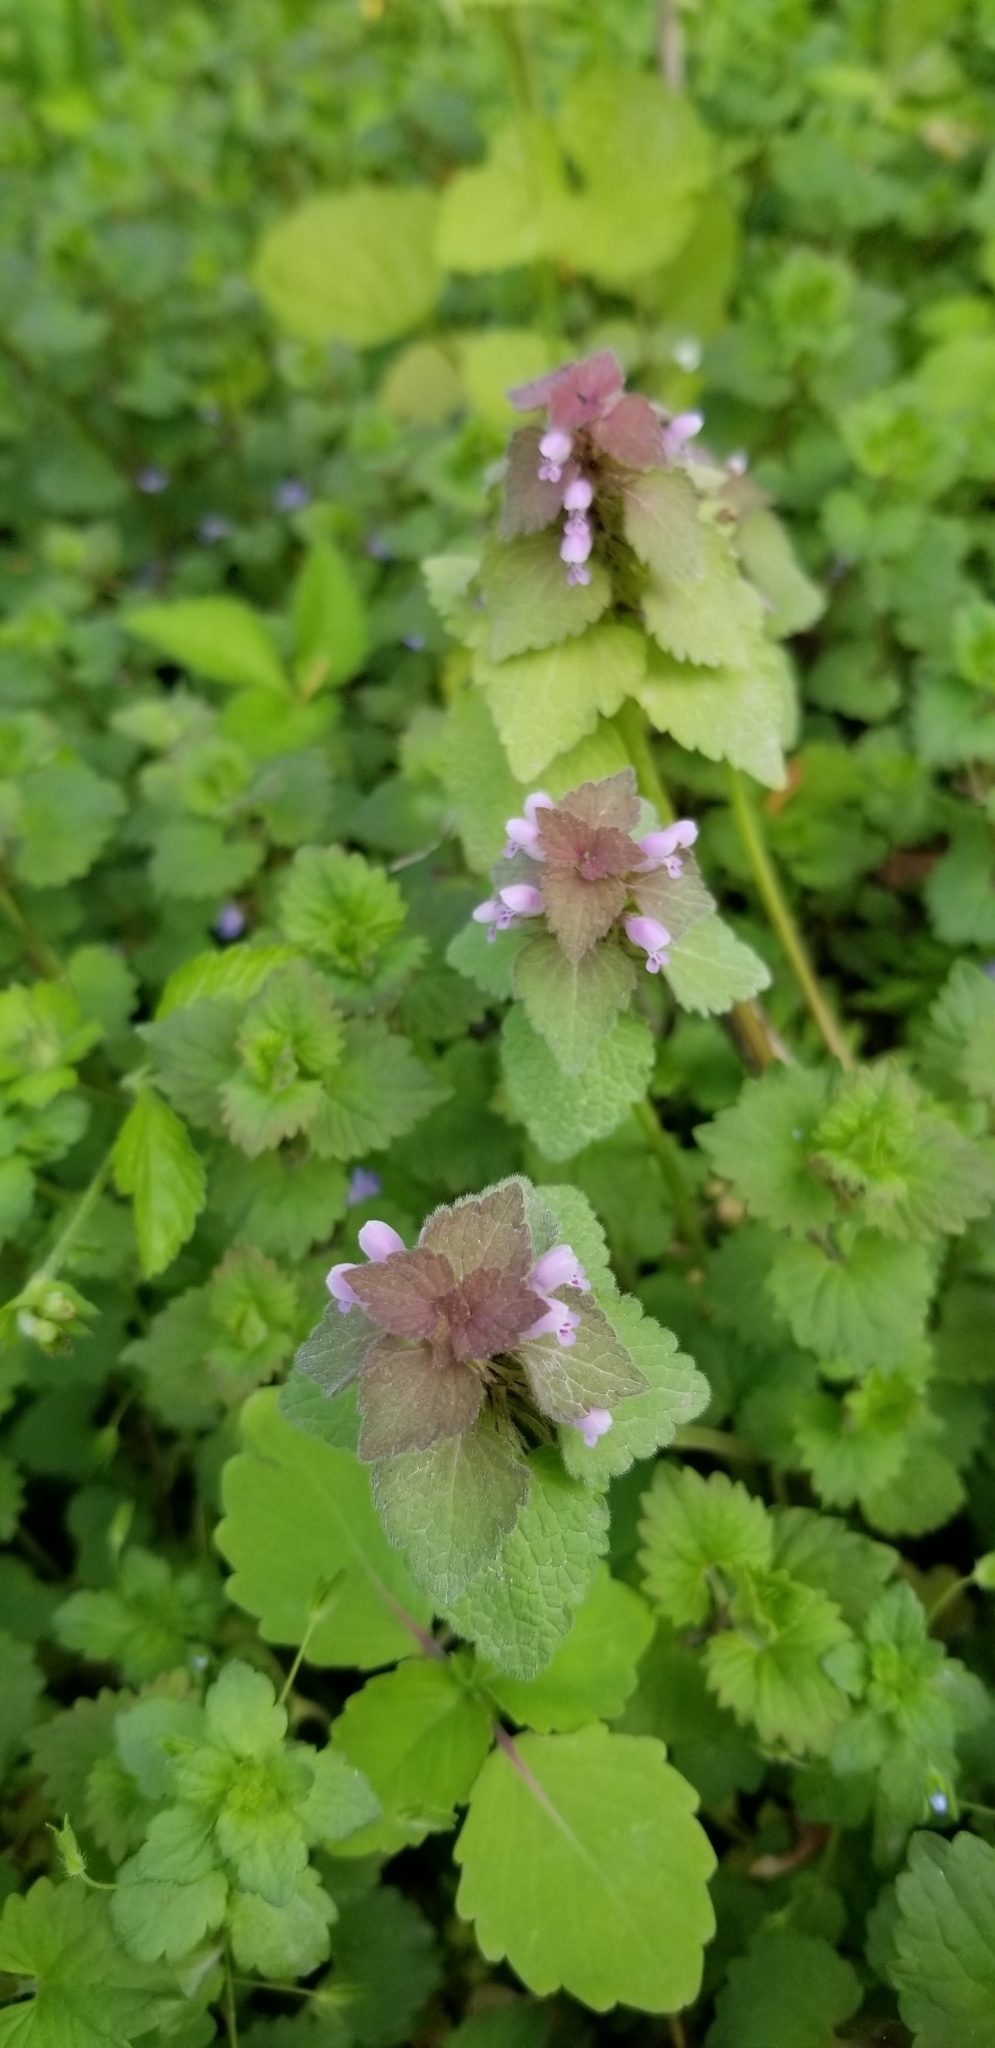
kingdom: Plantae
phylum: Tracheophyta
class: Magnoliopsida
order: Lamiales
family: Lamiaceae
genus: Lamium
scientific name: Lamium purpureum
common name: Red dead-nettle
